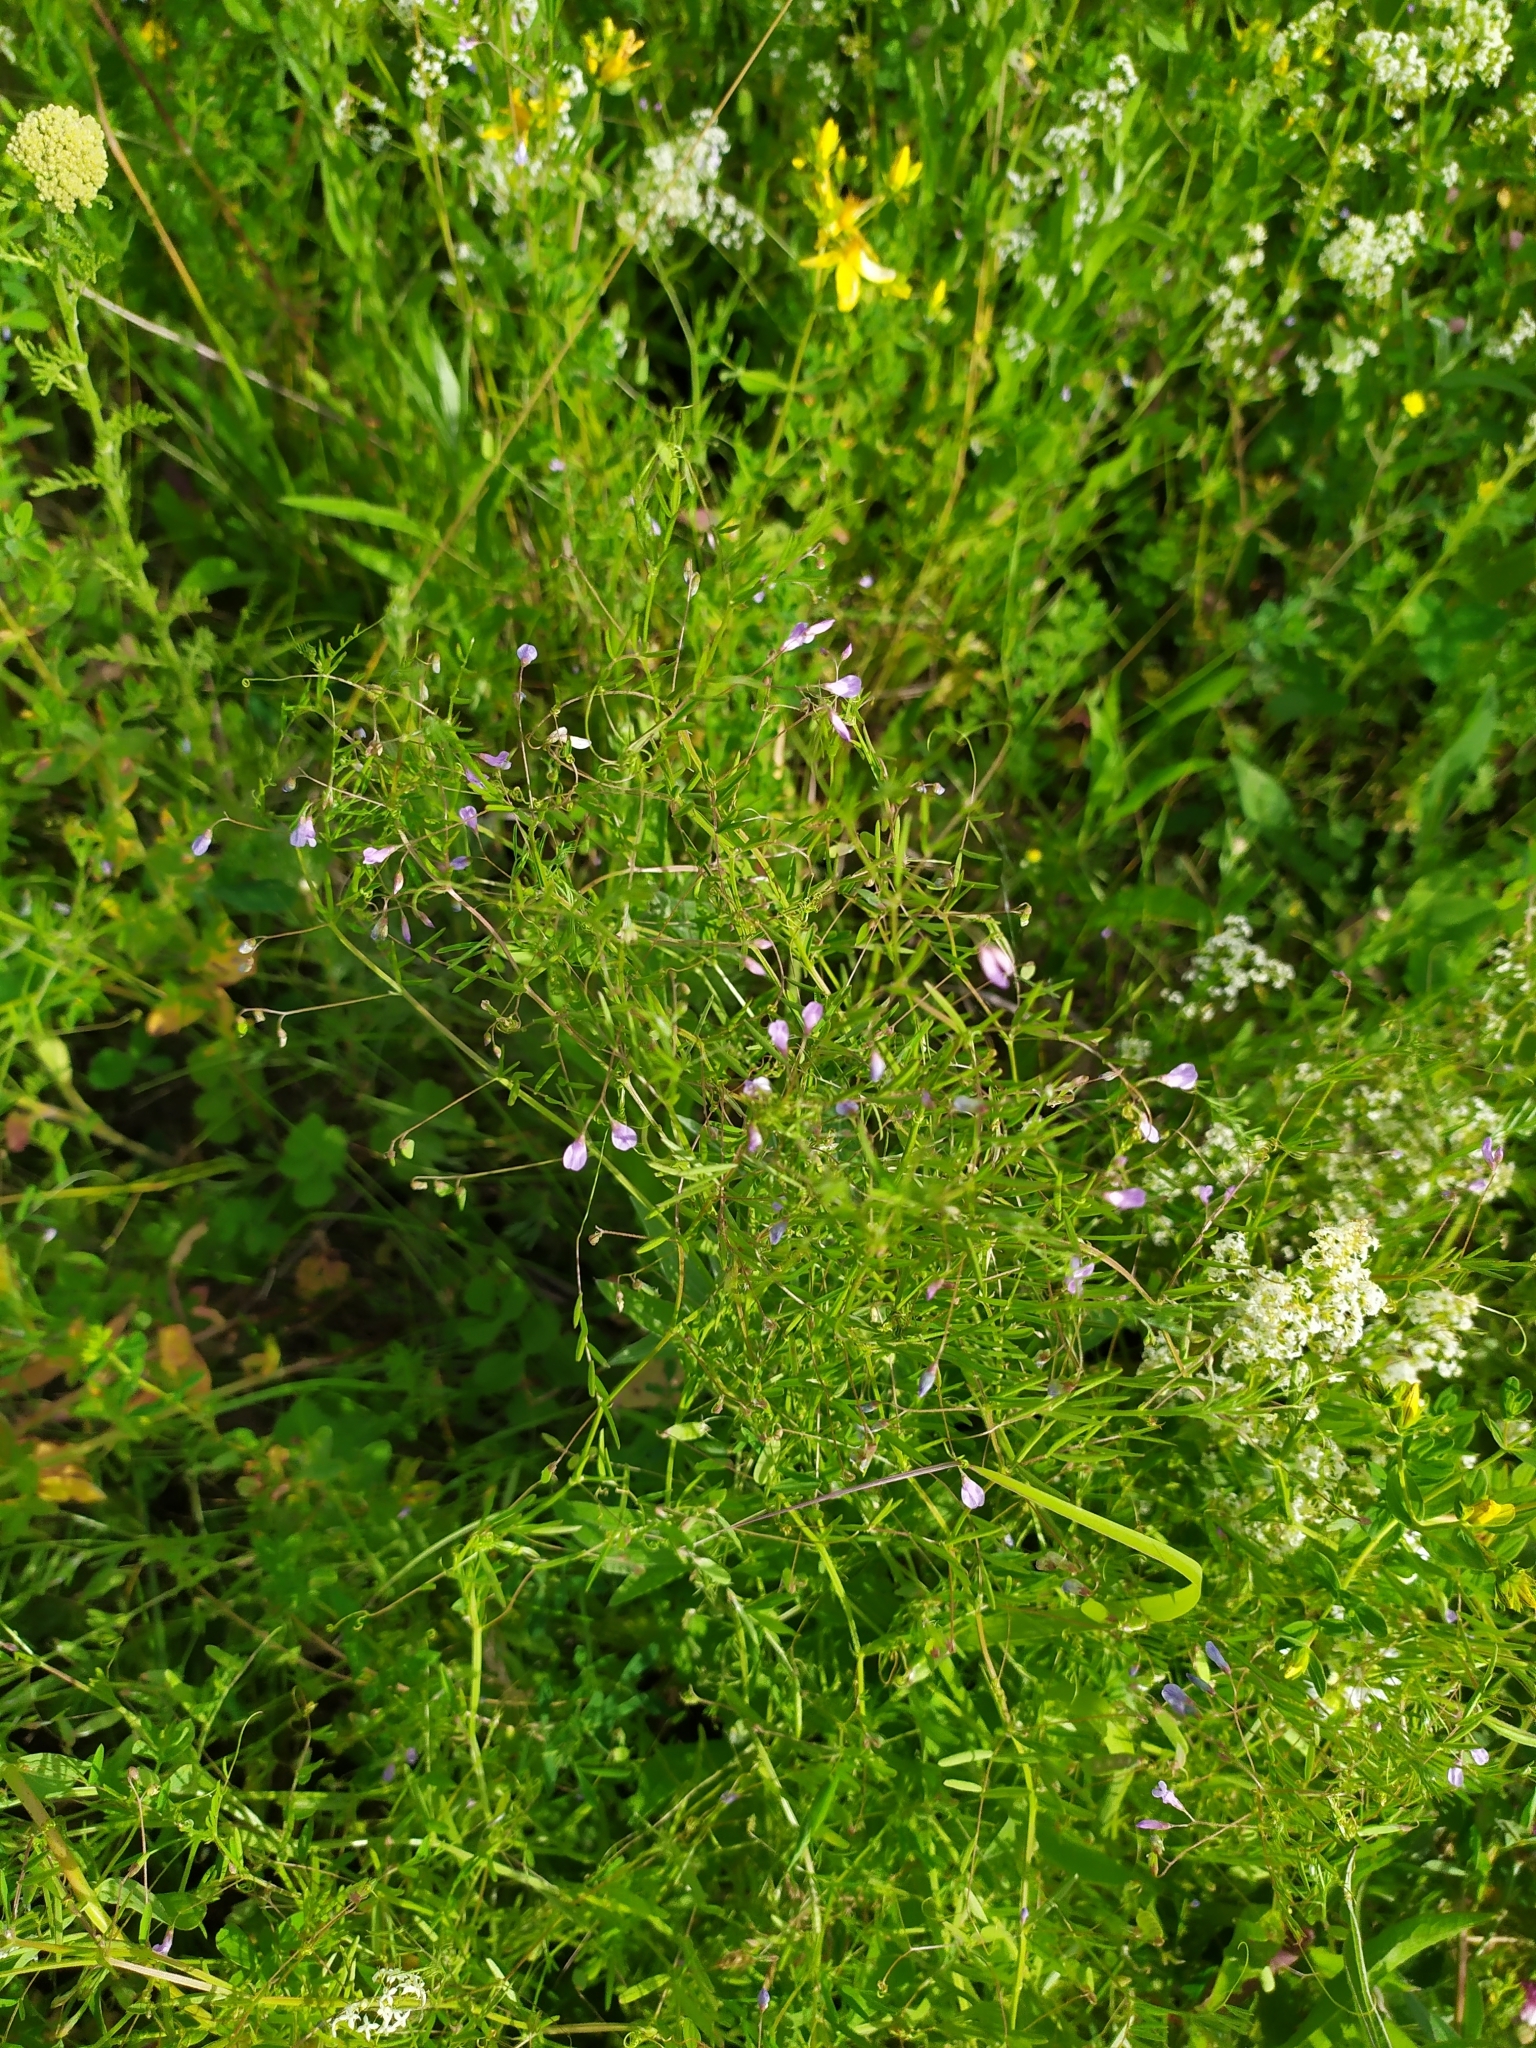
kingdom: Plantae
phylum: Tracheophyta
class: Magnoliopsida
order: Fabales
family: Fabaceae
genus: Vicia
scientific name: Vicia tetrasperma
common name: Smooth tare
